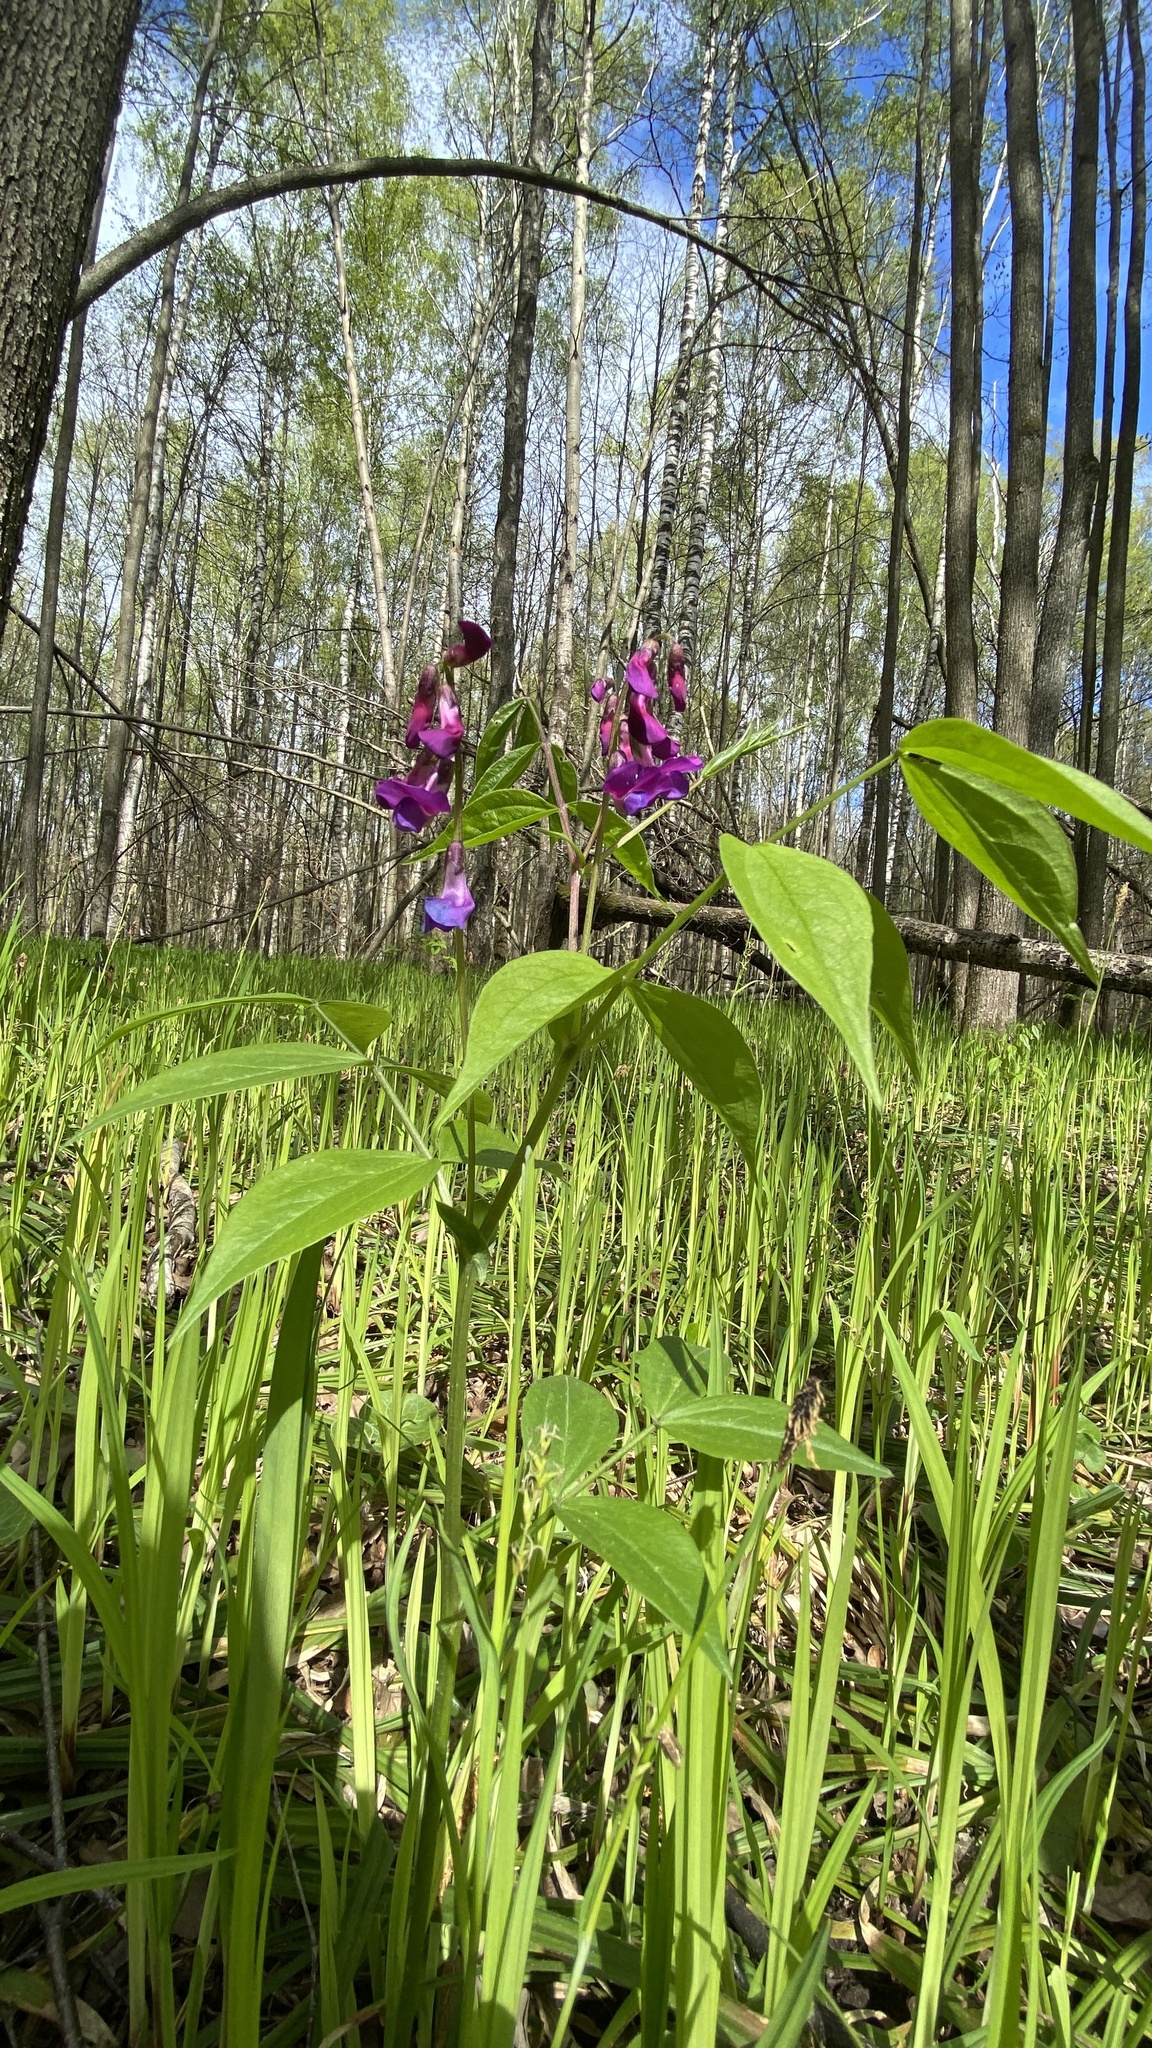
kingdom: Plantae
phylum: Tracheophyta
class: Magnoliopsida
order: Fabales
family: Fabaceae
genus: Lathyrus
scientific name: Lathyrus vernus
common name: Spring pea
